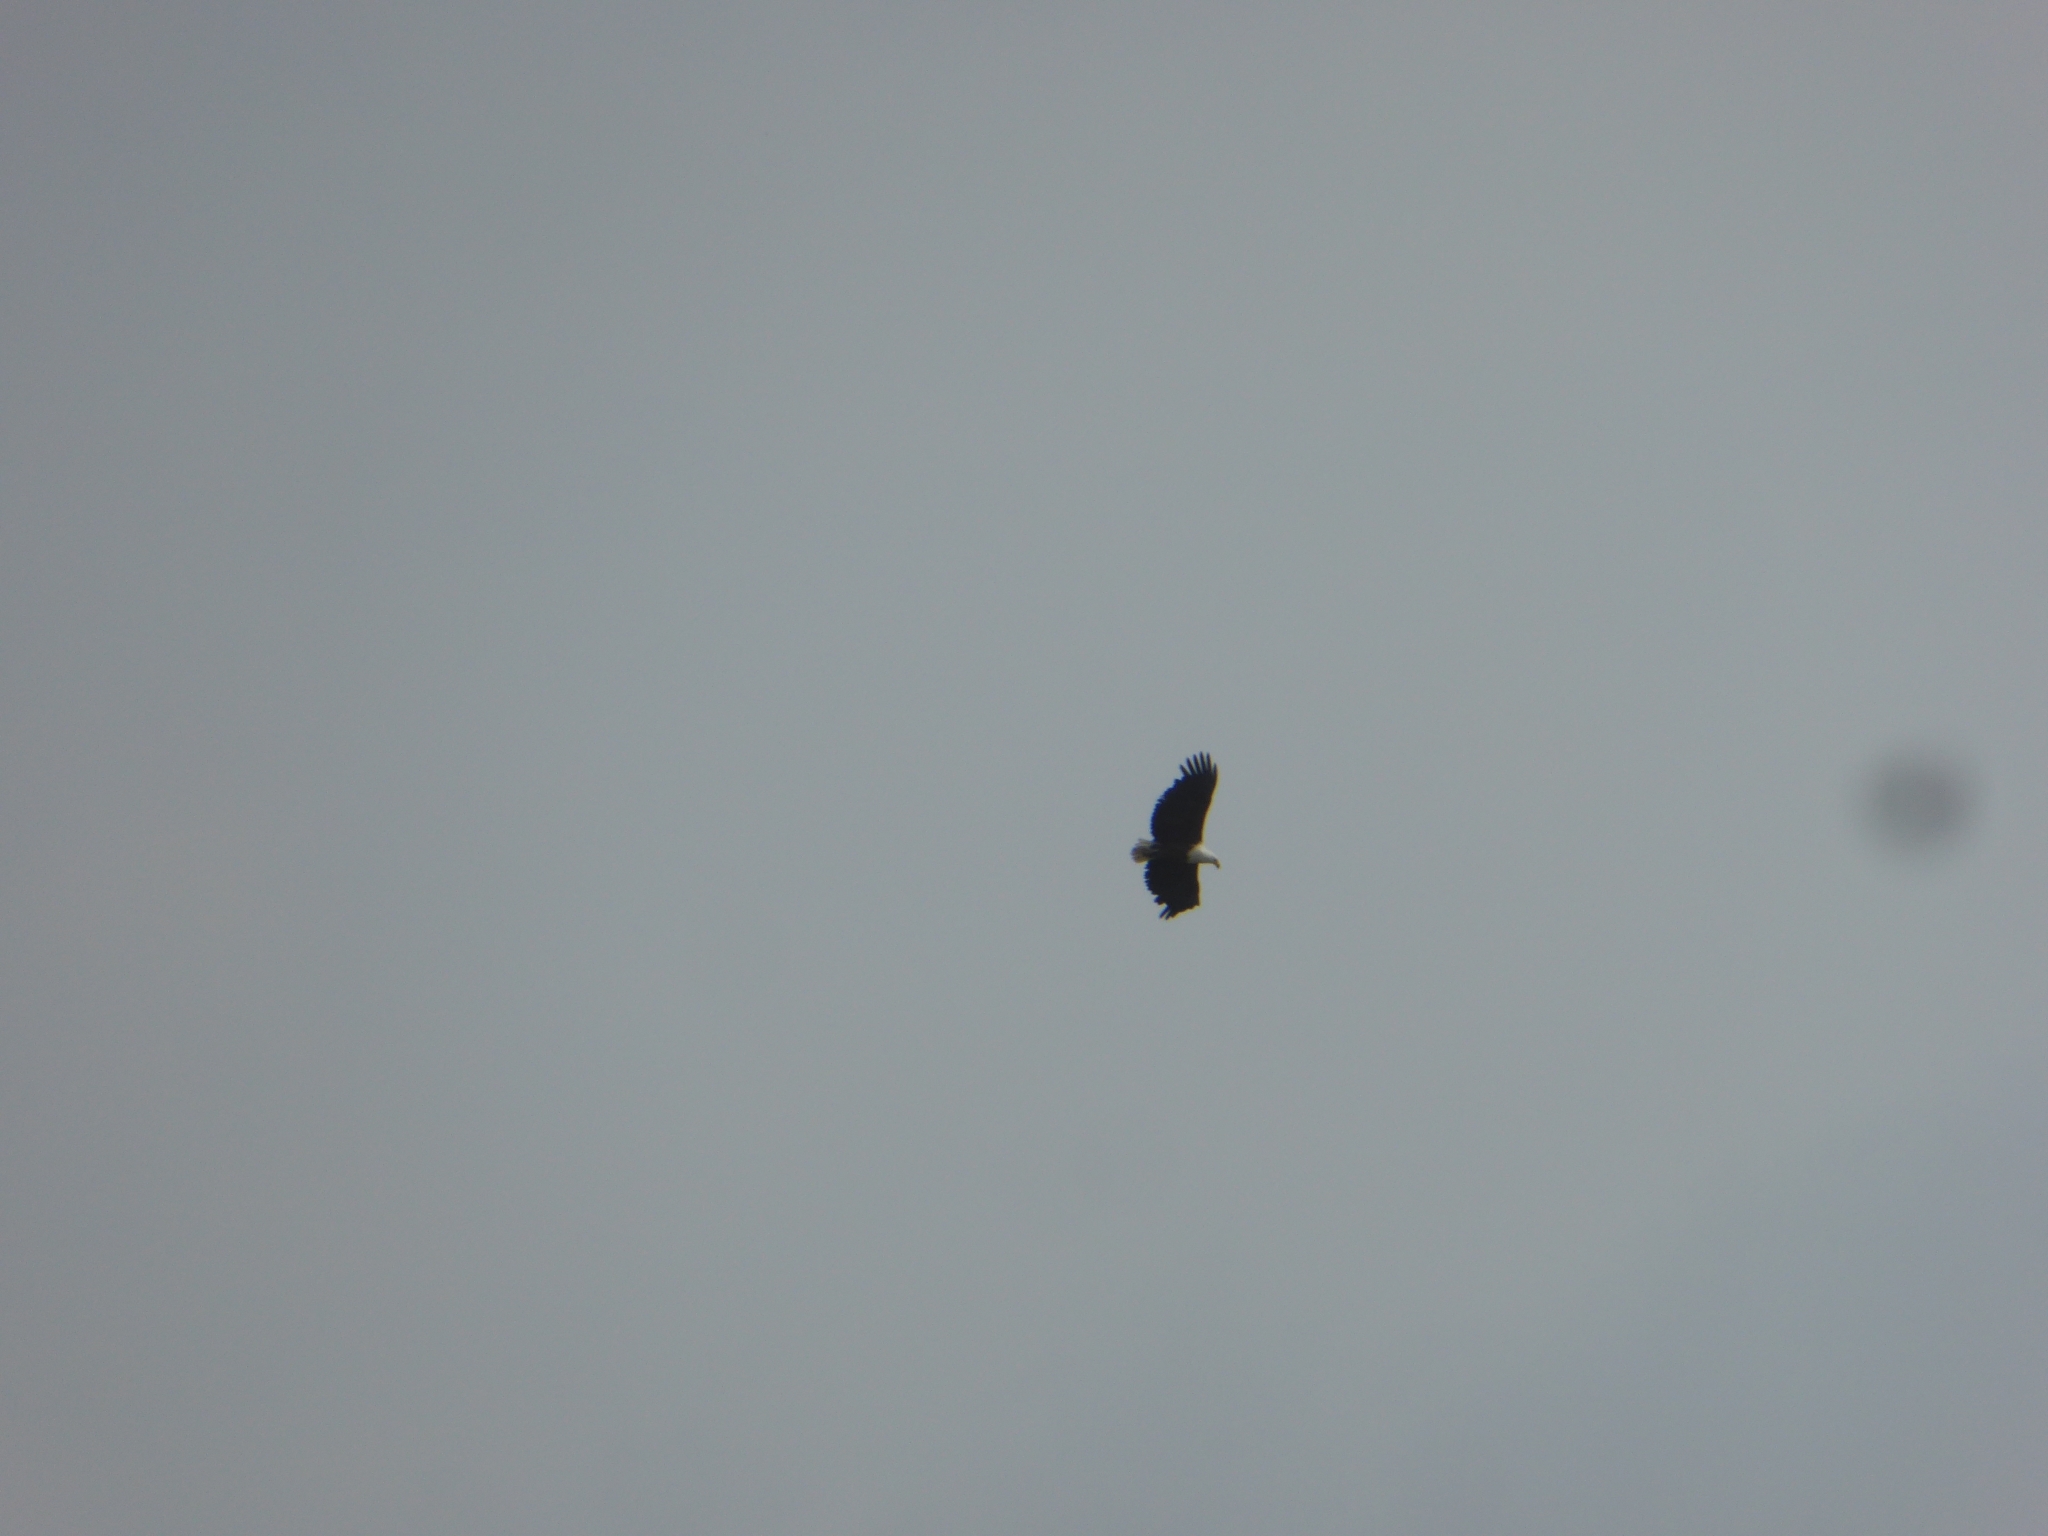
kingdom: Animalia
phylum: Chordata
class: Aves
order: Accipitriformes
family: Accipitridae
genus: Haliaeetus
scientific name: Haliaeetus vocifer
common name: African fish eagle
